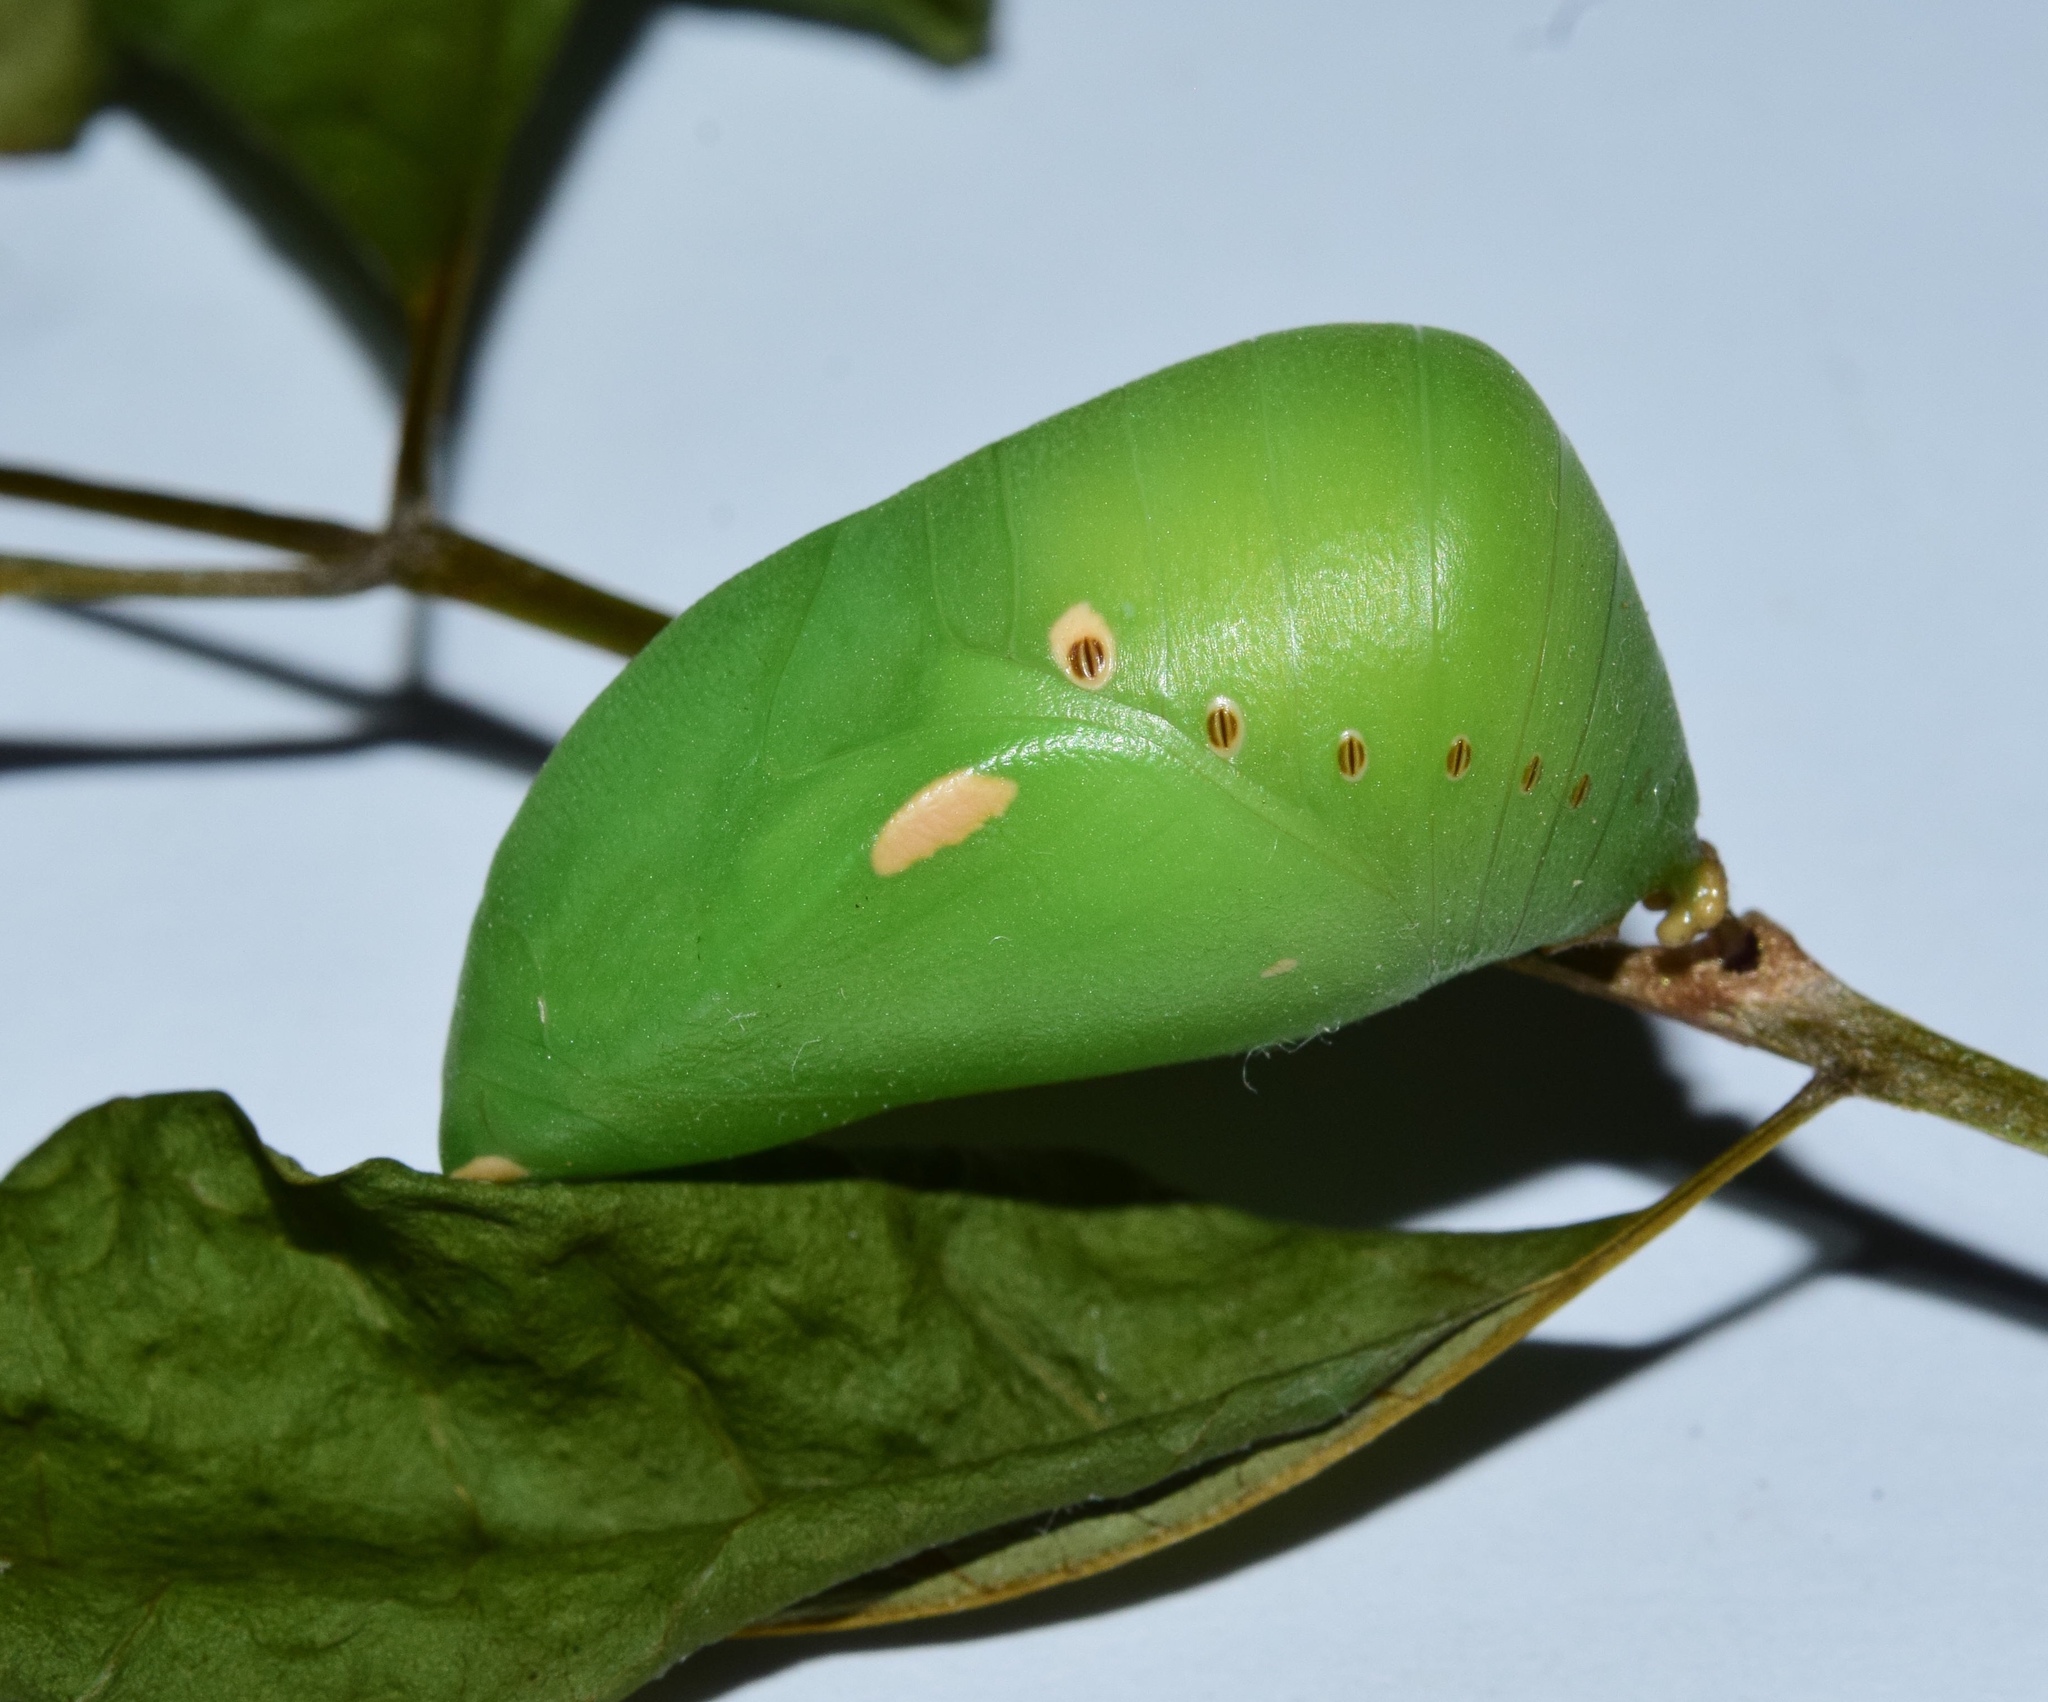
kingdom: Animalia
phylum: Arthropoda
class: Insecta
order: Lepidoptera
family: Nymphalidae
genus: Charaxes
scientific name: Charaxes brutus
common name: White-barred charaxes
